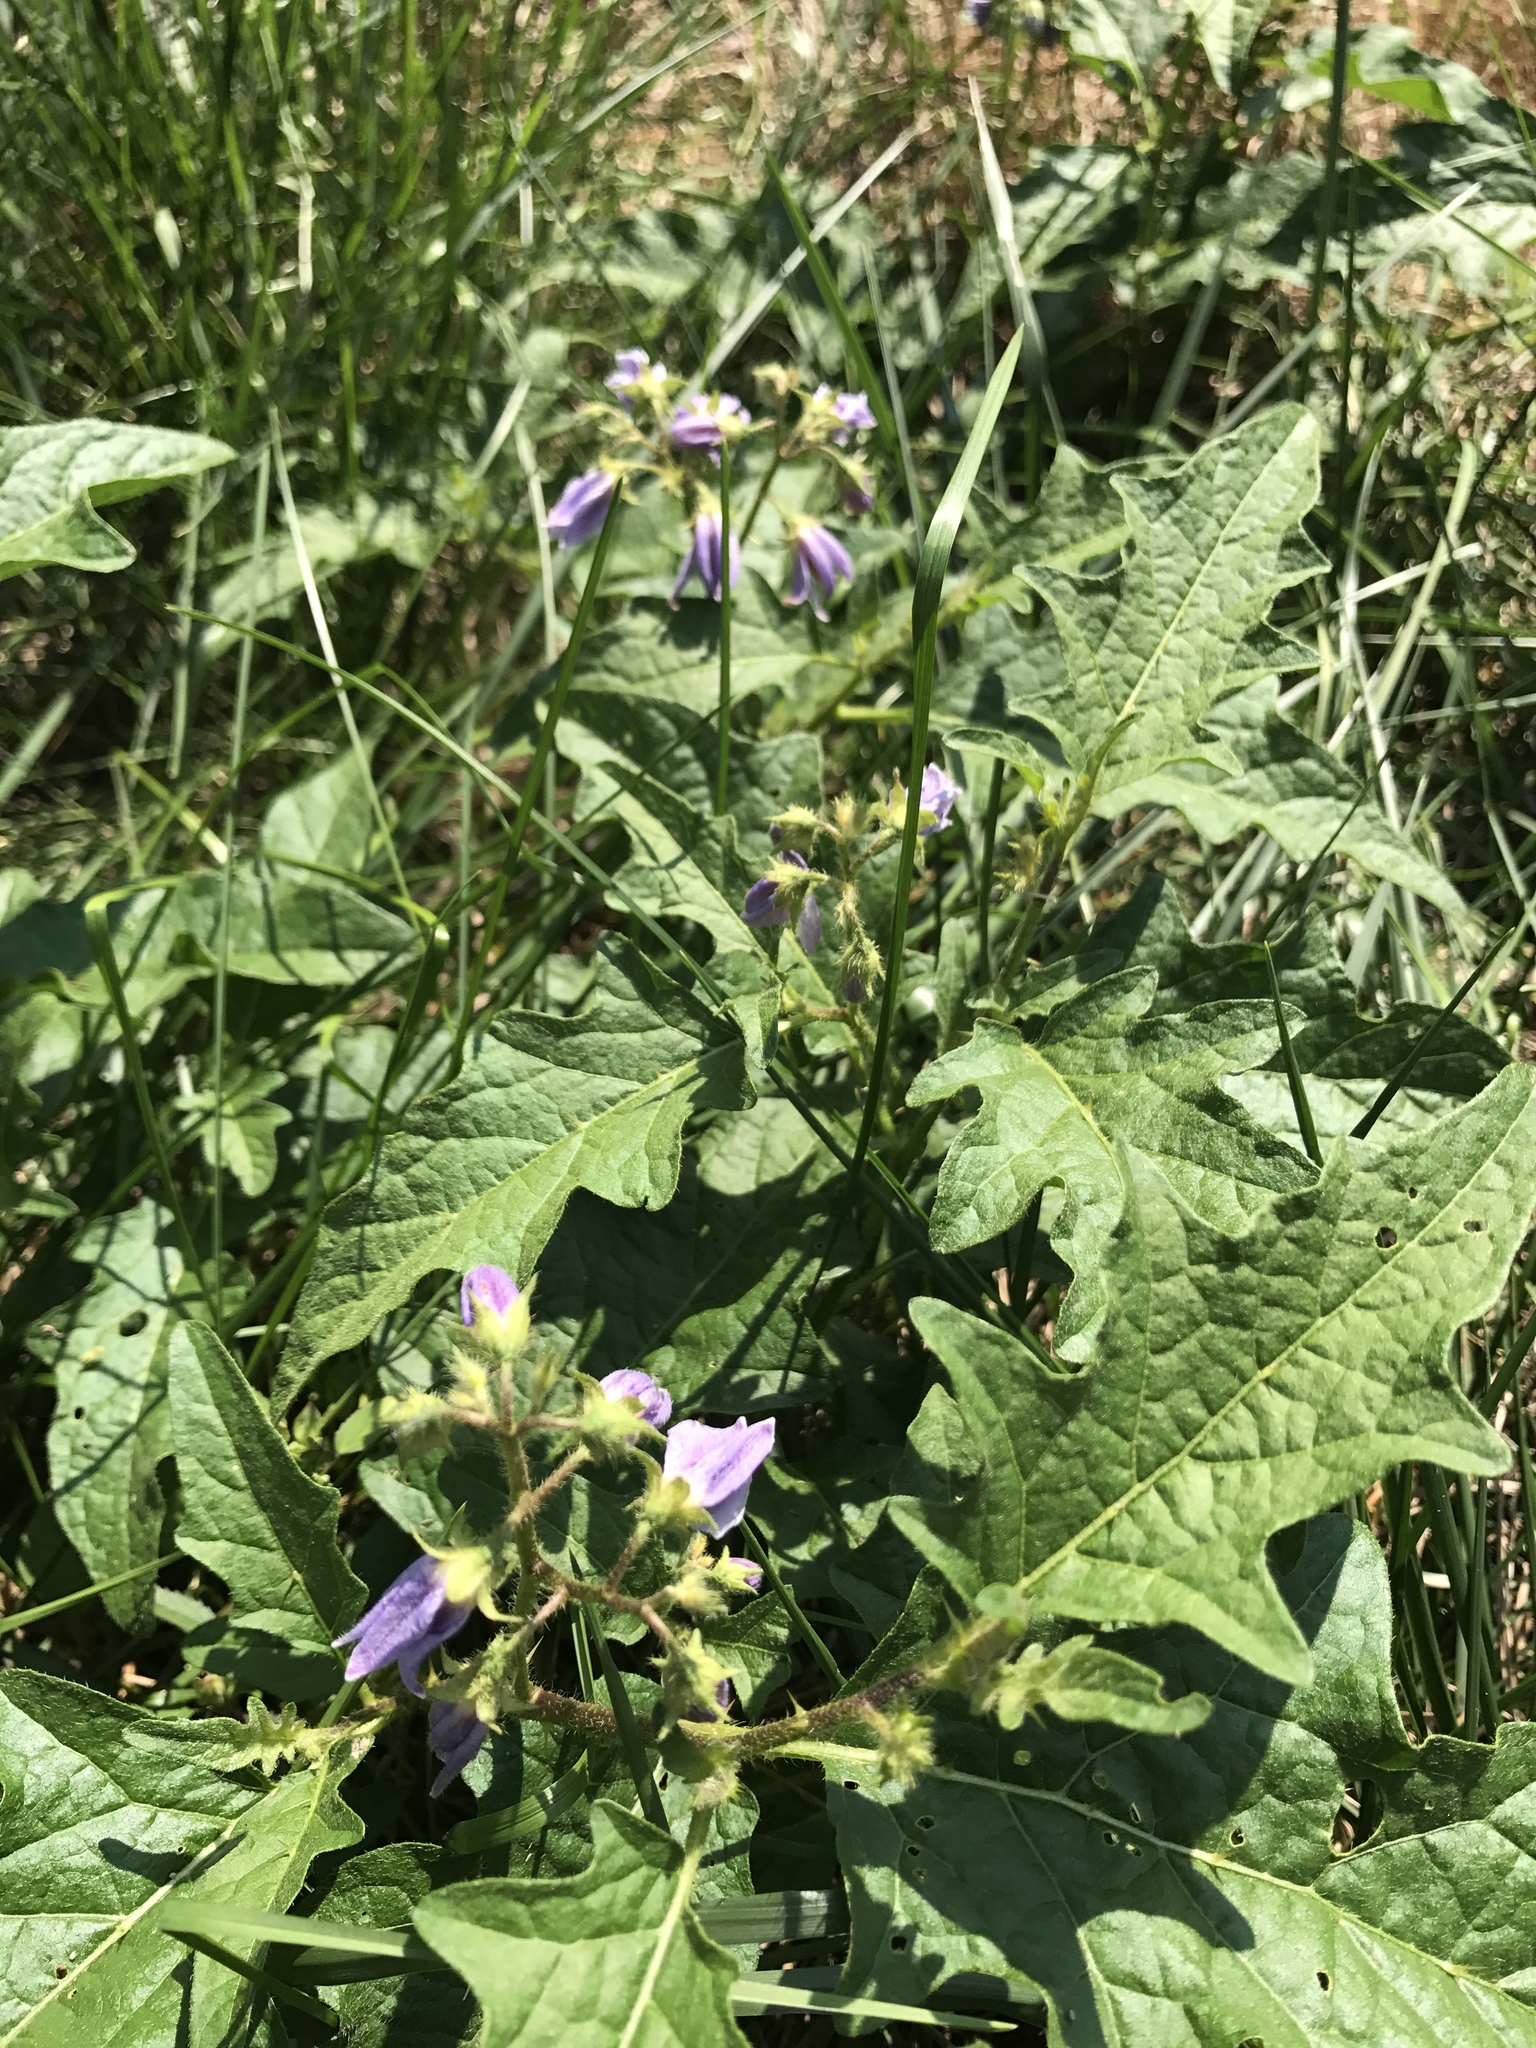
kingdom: Plantae
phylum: Tracheophyta
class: Magnoliopsida
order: Solanales
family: Solanaceae
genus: Solanum
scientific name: Solanum carolinense
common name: Horse-nettle
